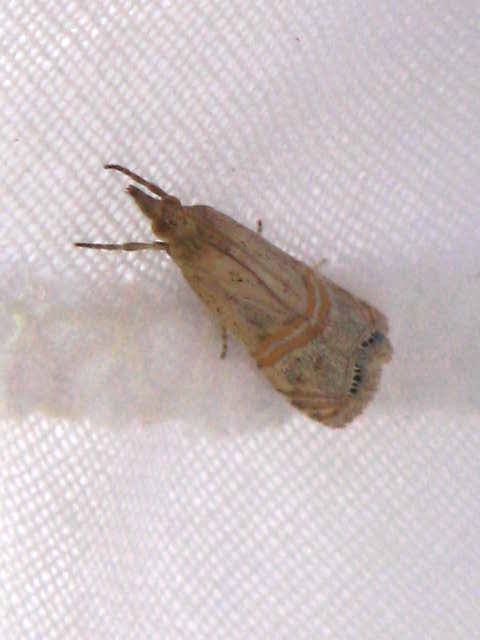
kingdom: Animalia
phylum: Arthropoda
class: Insecta
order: Lepidoptera
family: Crambidae
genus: Euchromius
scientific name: Euchromius ocellea
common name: Necklace veneer moth
